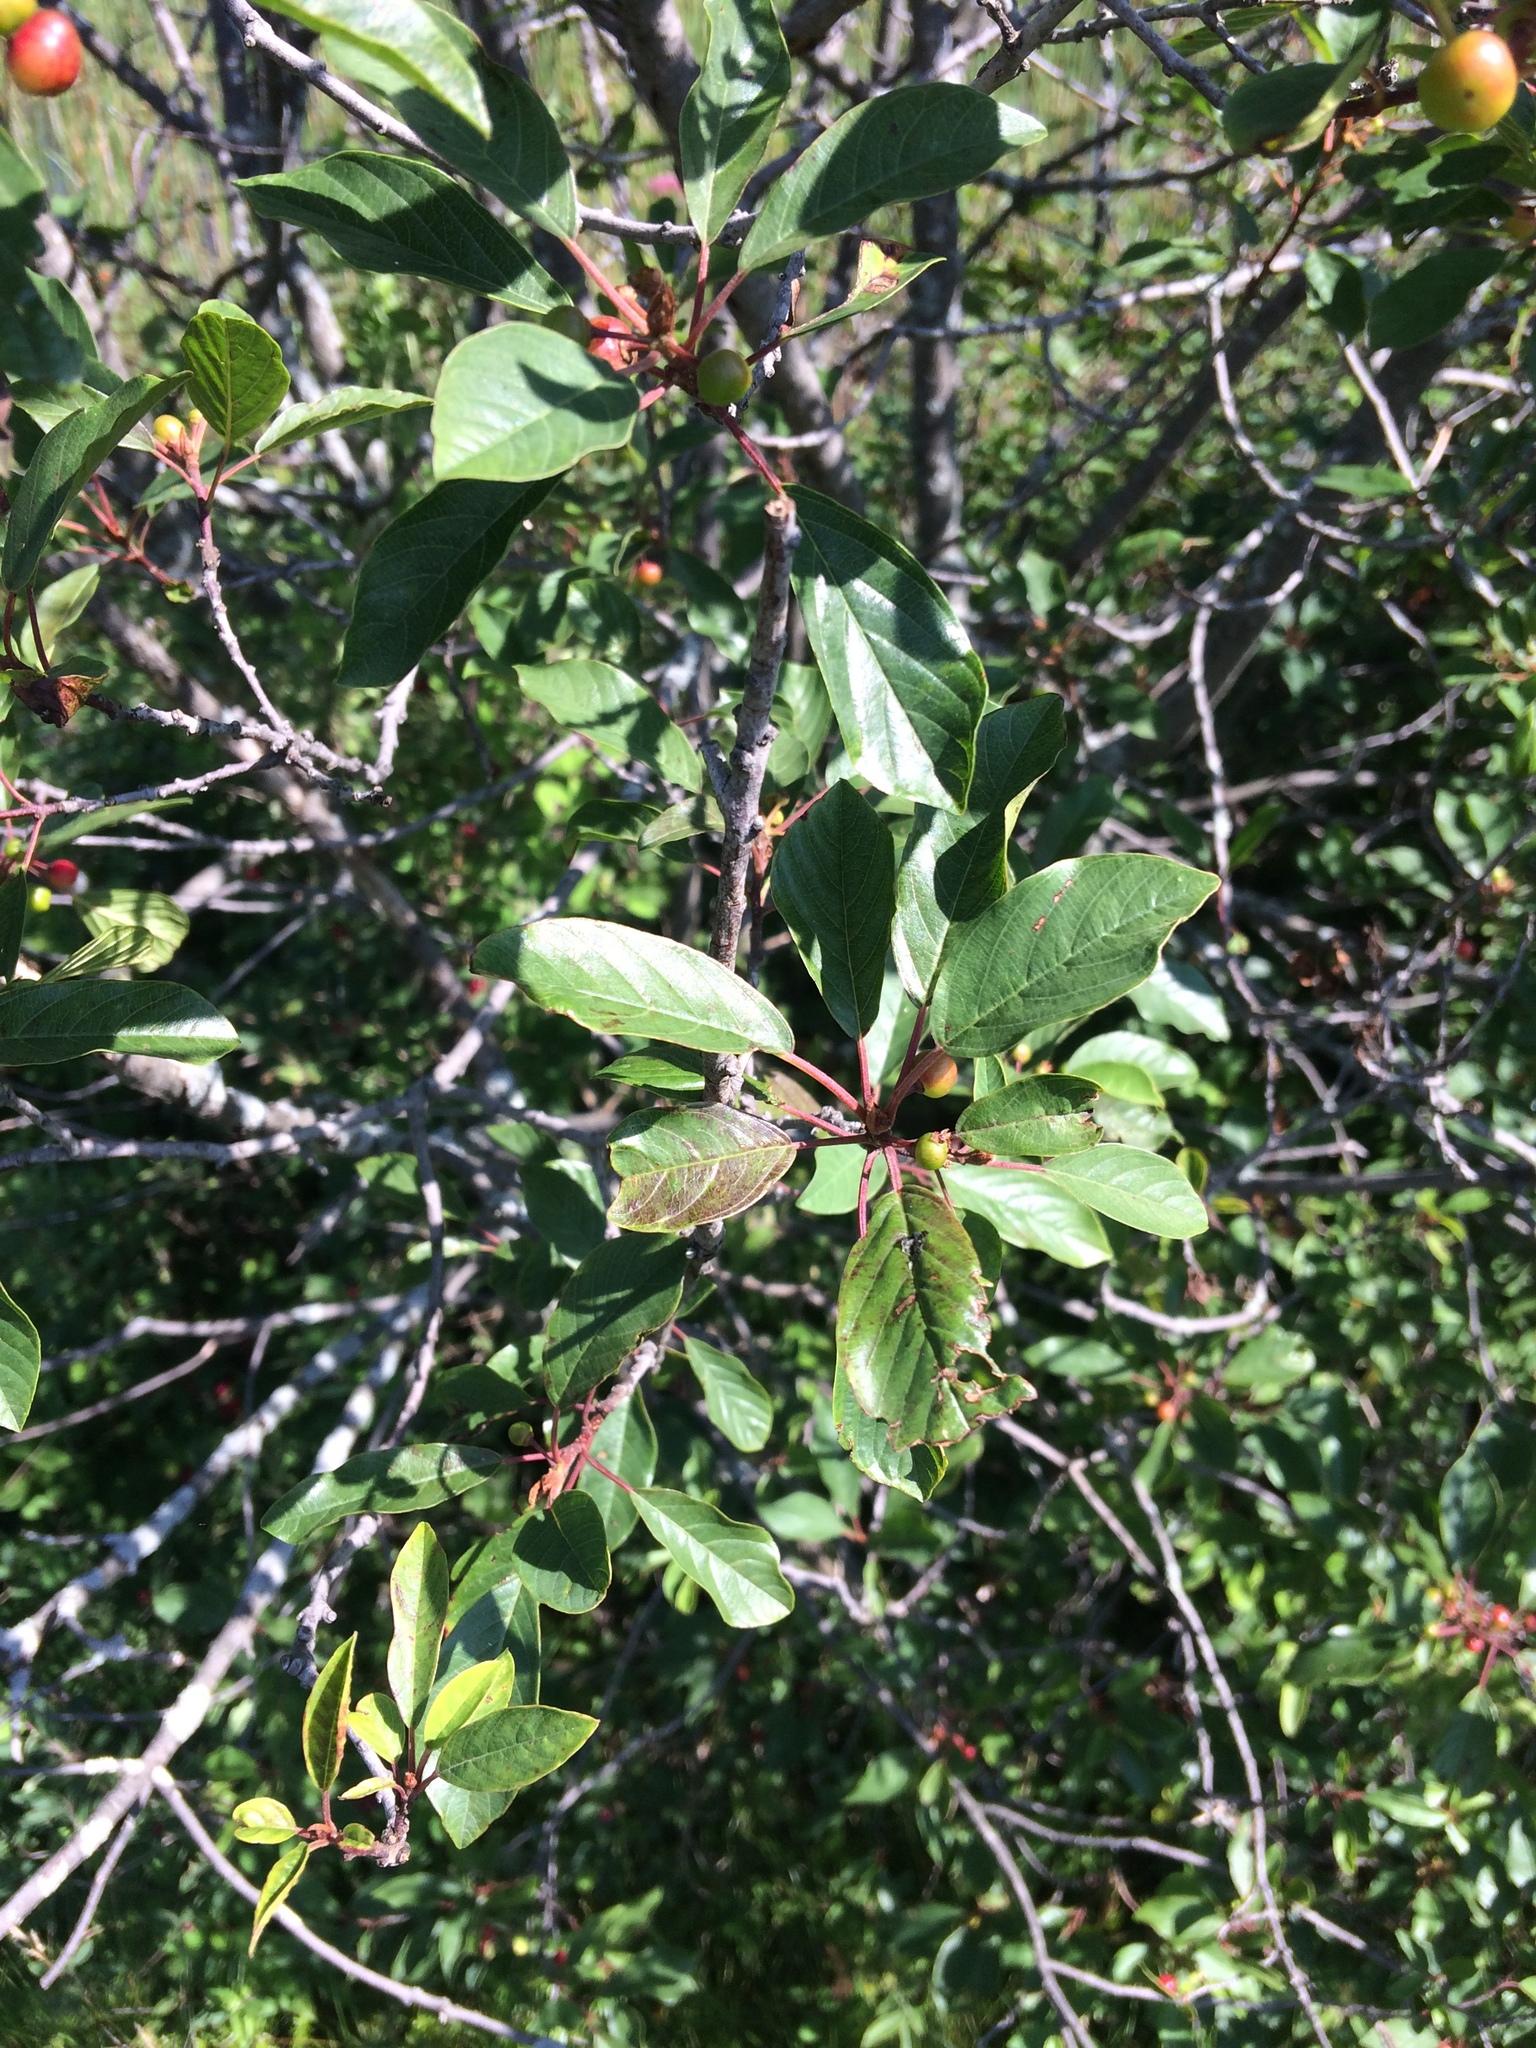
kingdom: Plantae
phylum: Tracheophyta
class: Magnoliopsida
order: Rosales
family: Rhamnaceae
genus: Frangula
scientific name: Frangula alnus
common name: Alder buckthorn
